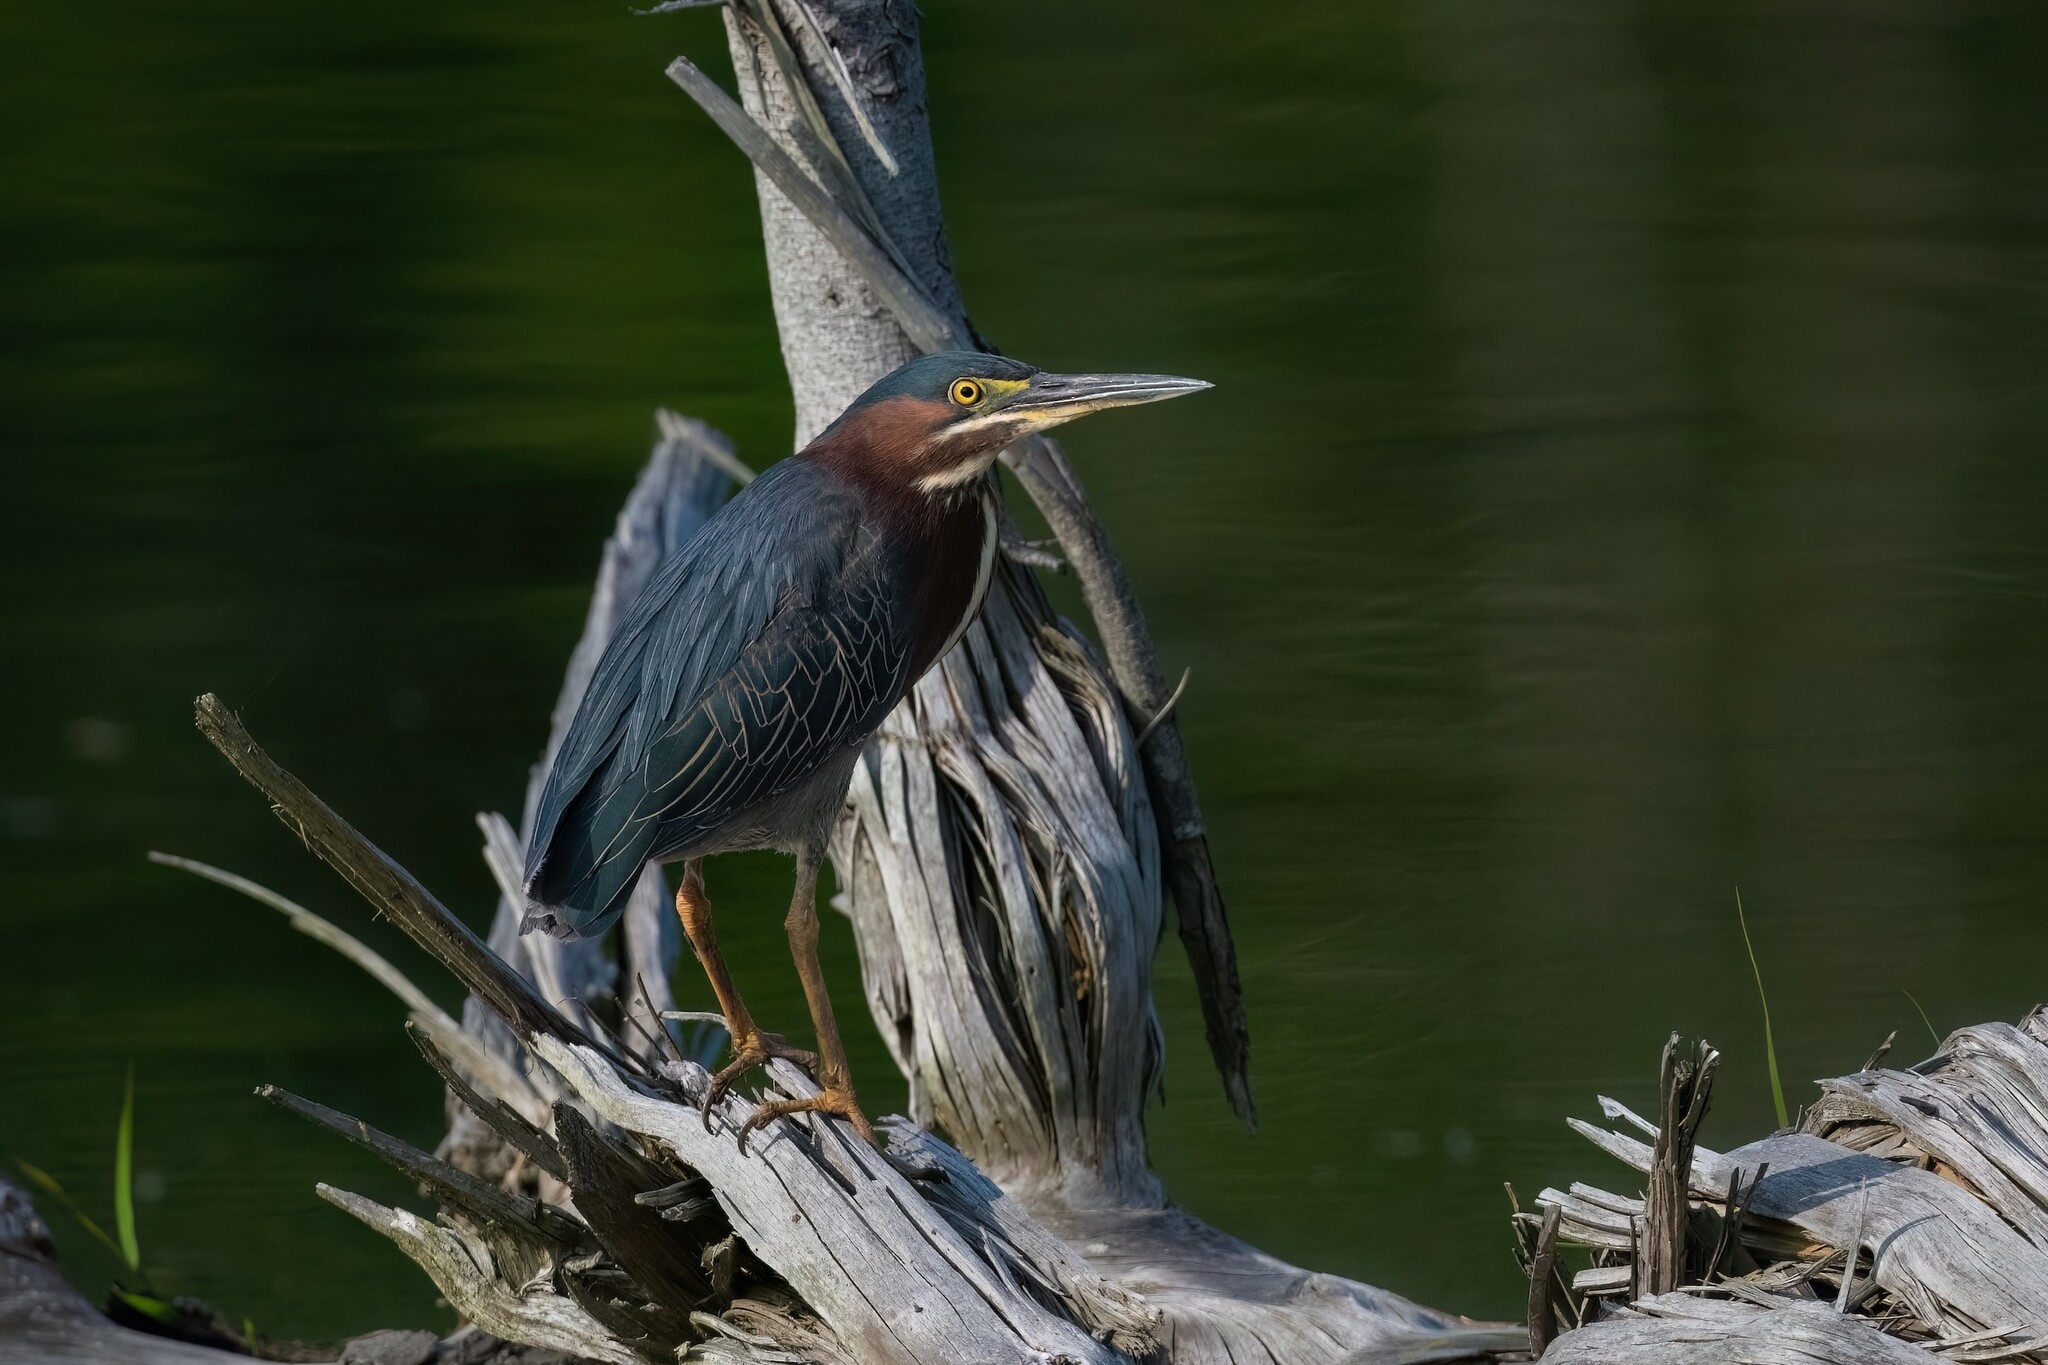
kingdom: Animalia
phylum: Chordata
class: Aves
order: Pelecaniformes
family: Ardeidae
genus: Butorides
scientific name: Butorides virescens
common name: Green heron
